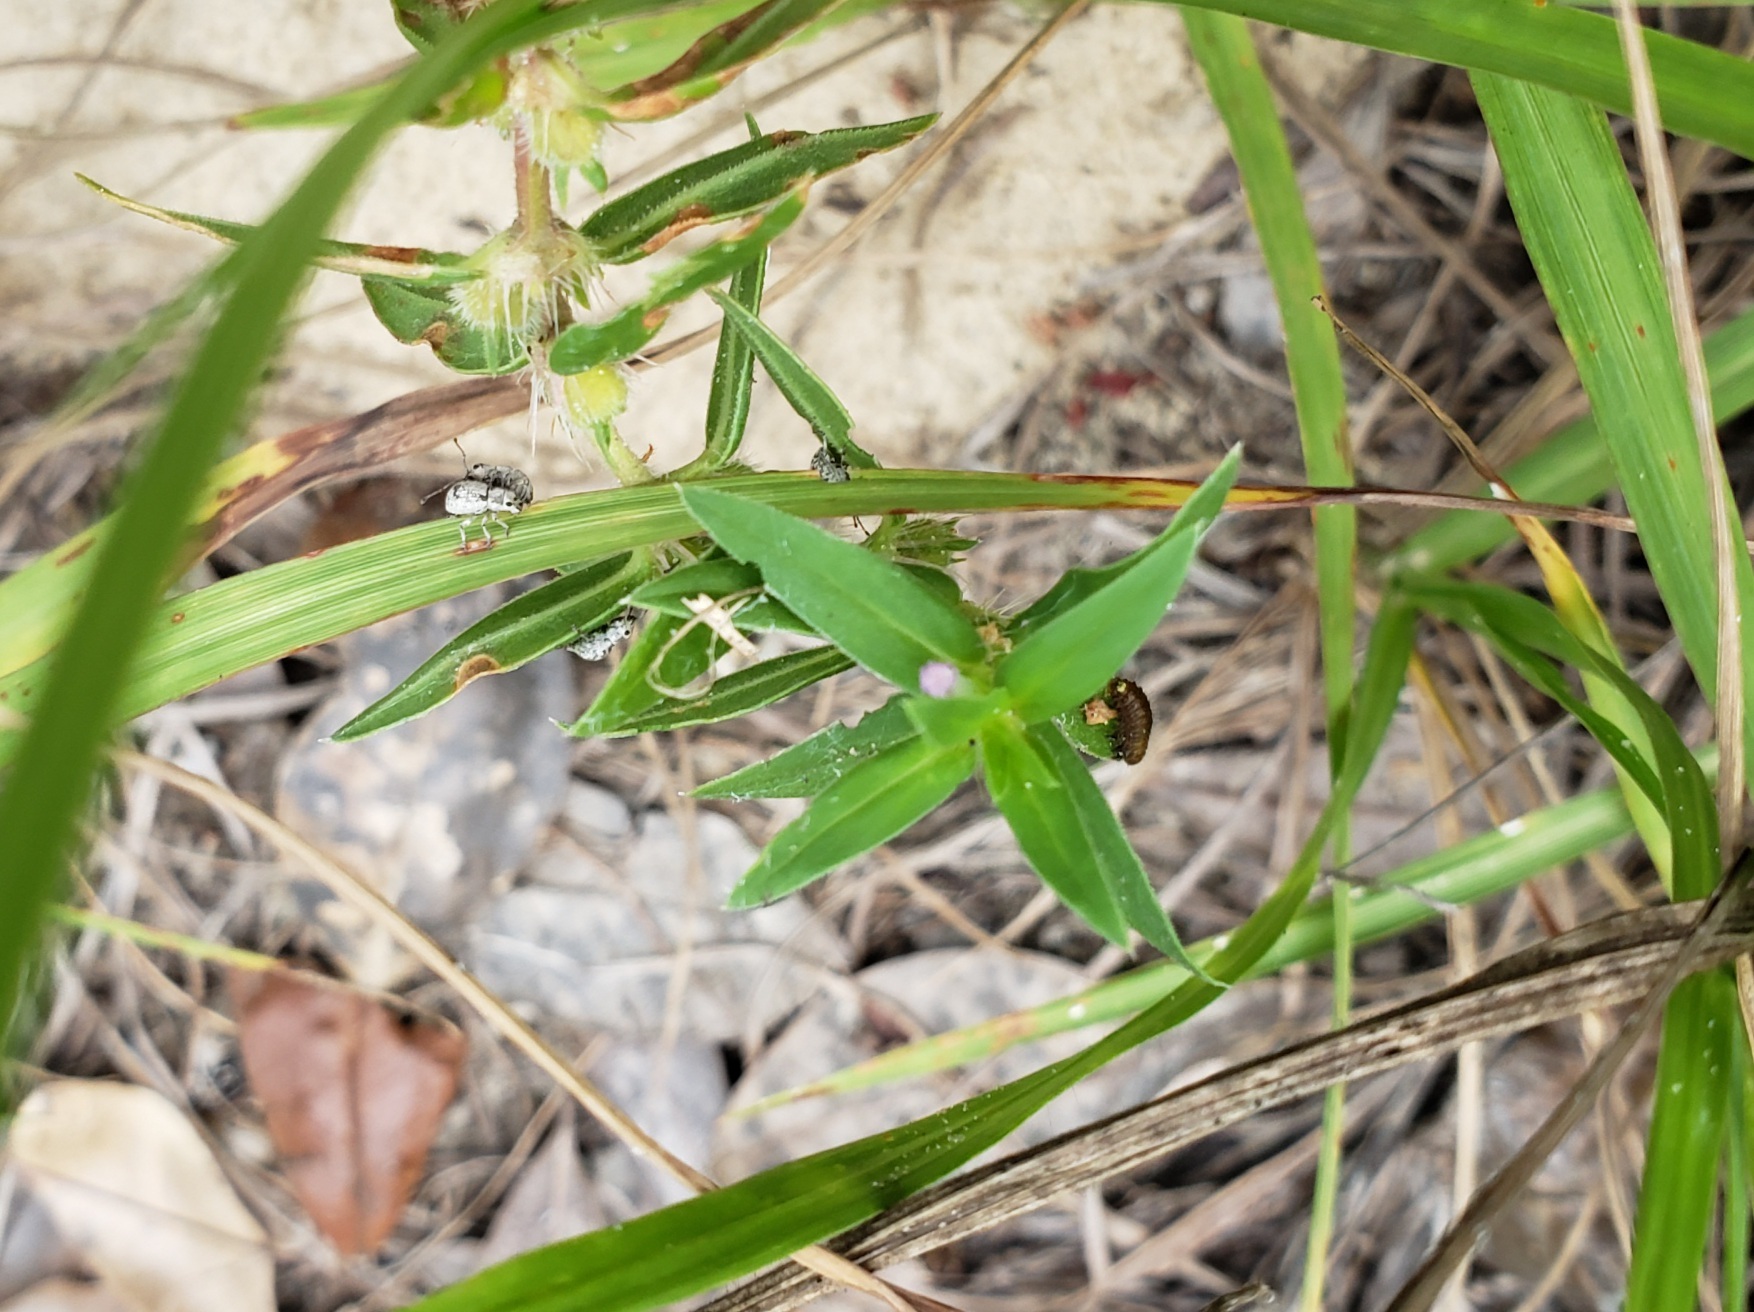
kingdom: Plantae
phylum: Tracheophyta
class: Magnoliopsida
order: Lamiales
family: Verbenaceae
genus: Phyla
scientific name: Phyla nodiflora
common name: Frogfruit
